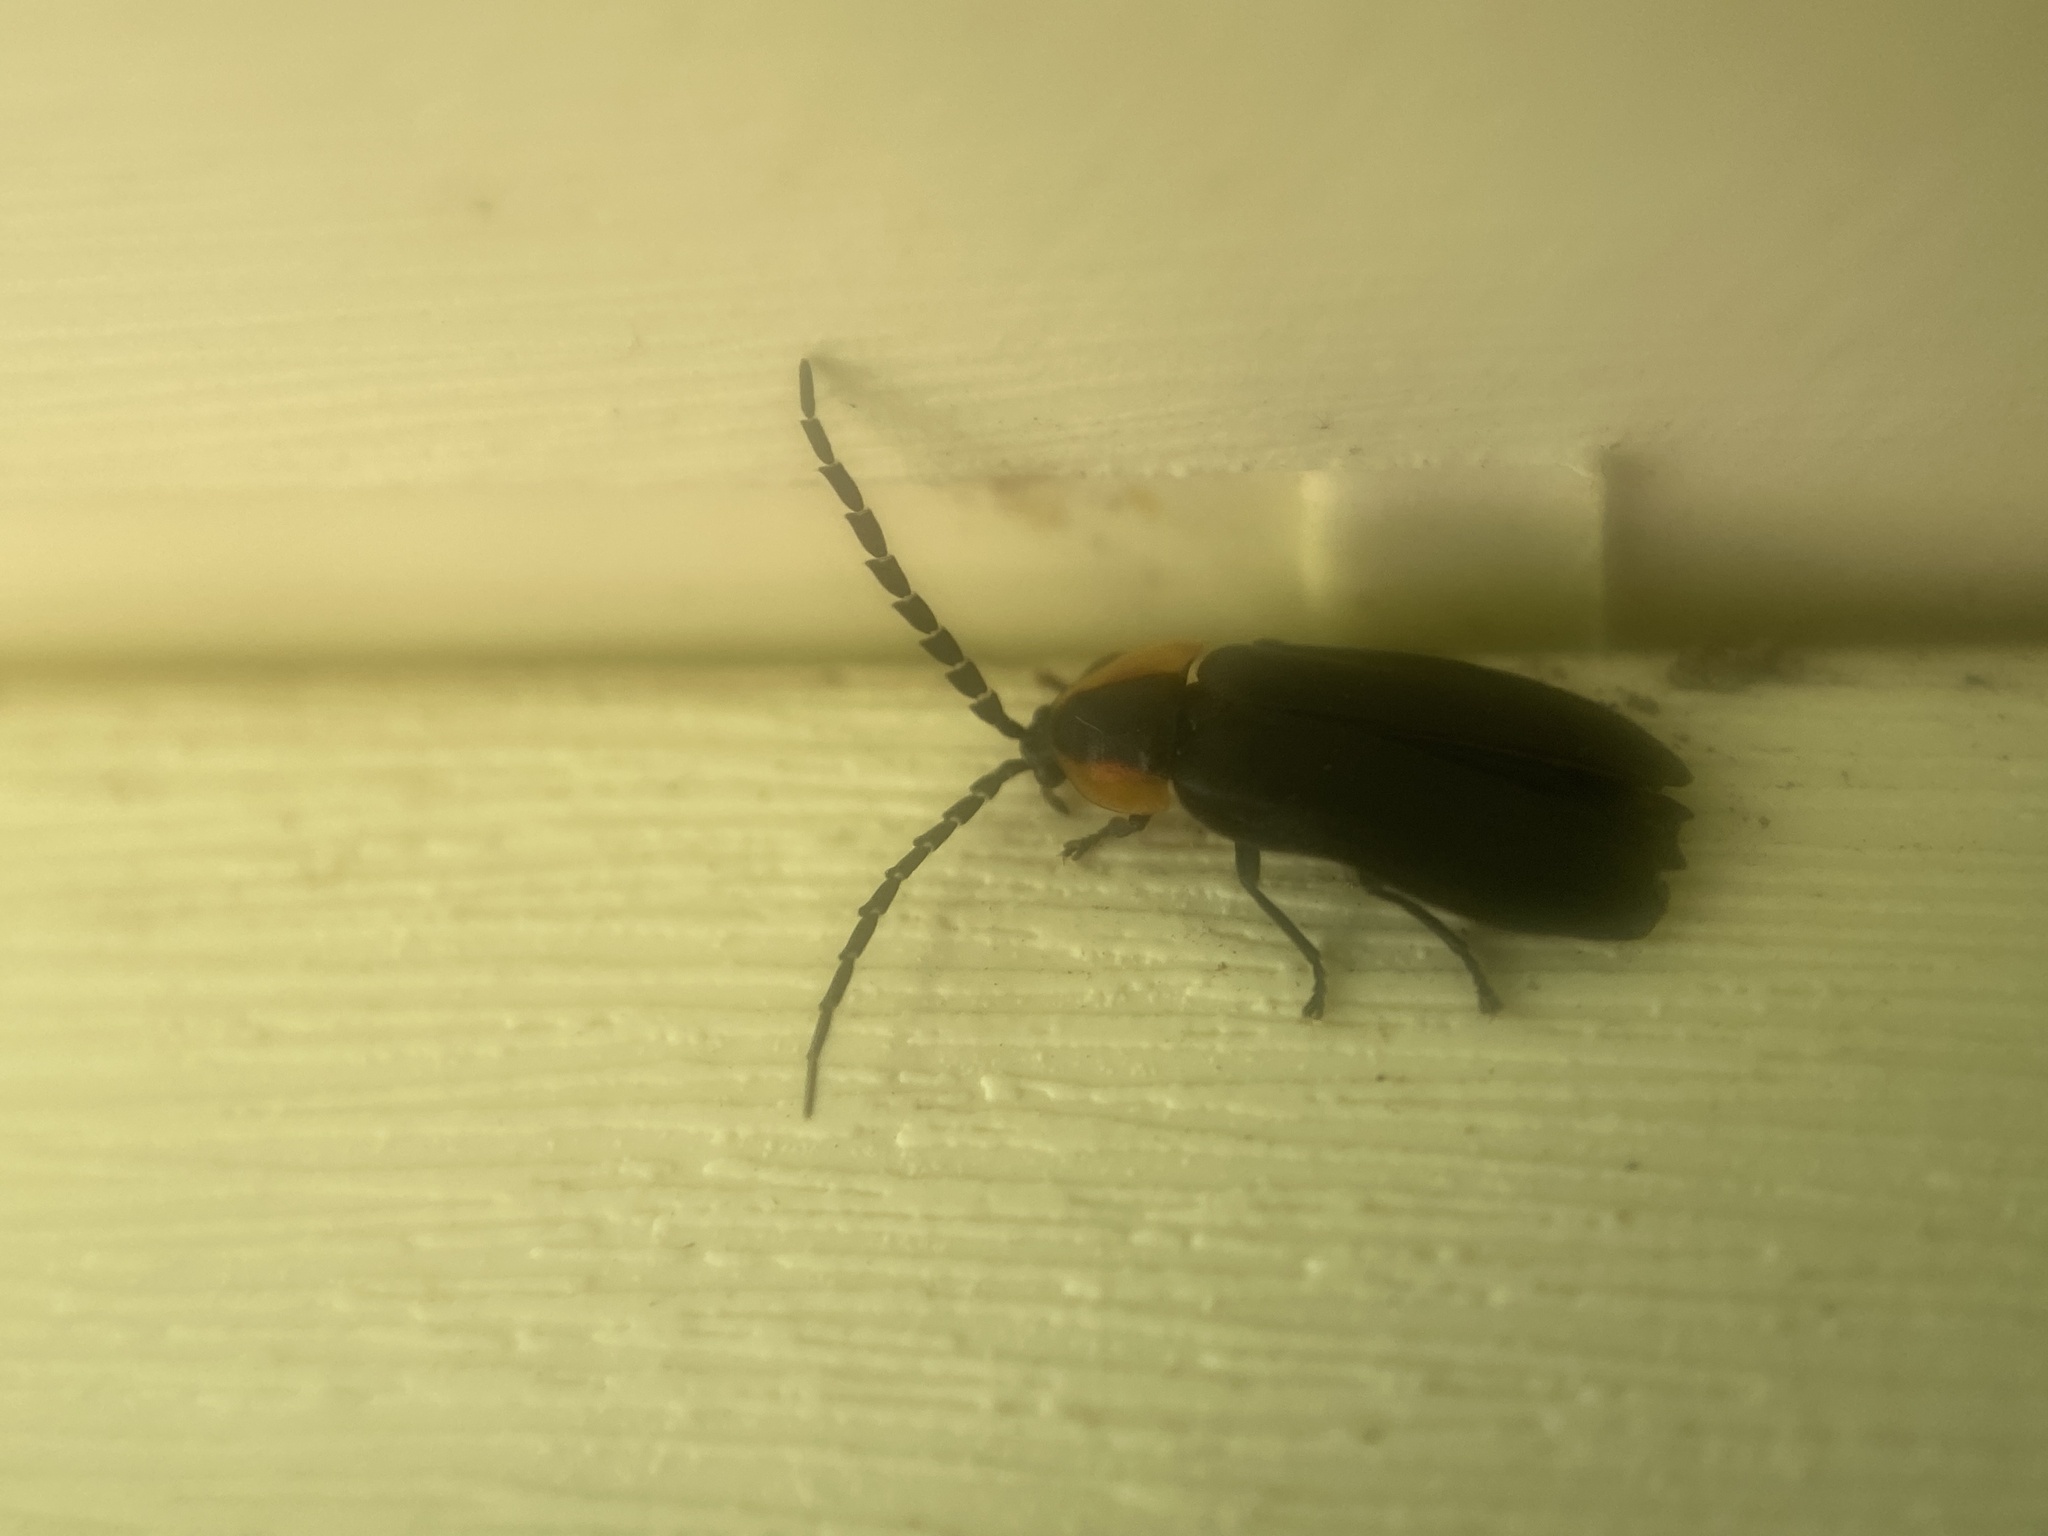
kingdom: Animalia
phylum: Arthropoda
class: Insecta
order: Coleoptera
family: Lampyridae
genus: Lucidota
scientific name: Lucidota atra
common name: Black firefly
